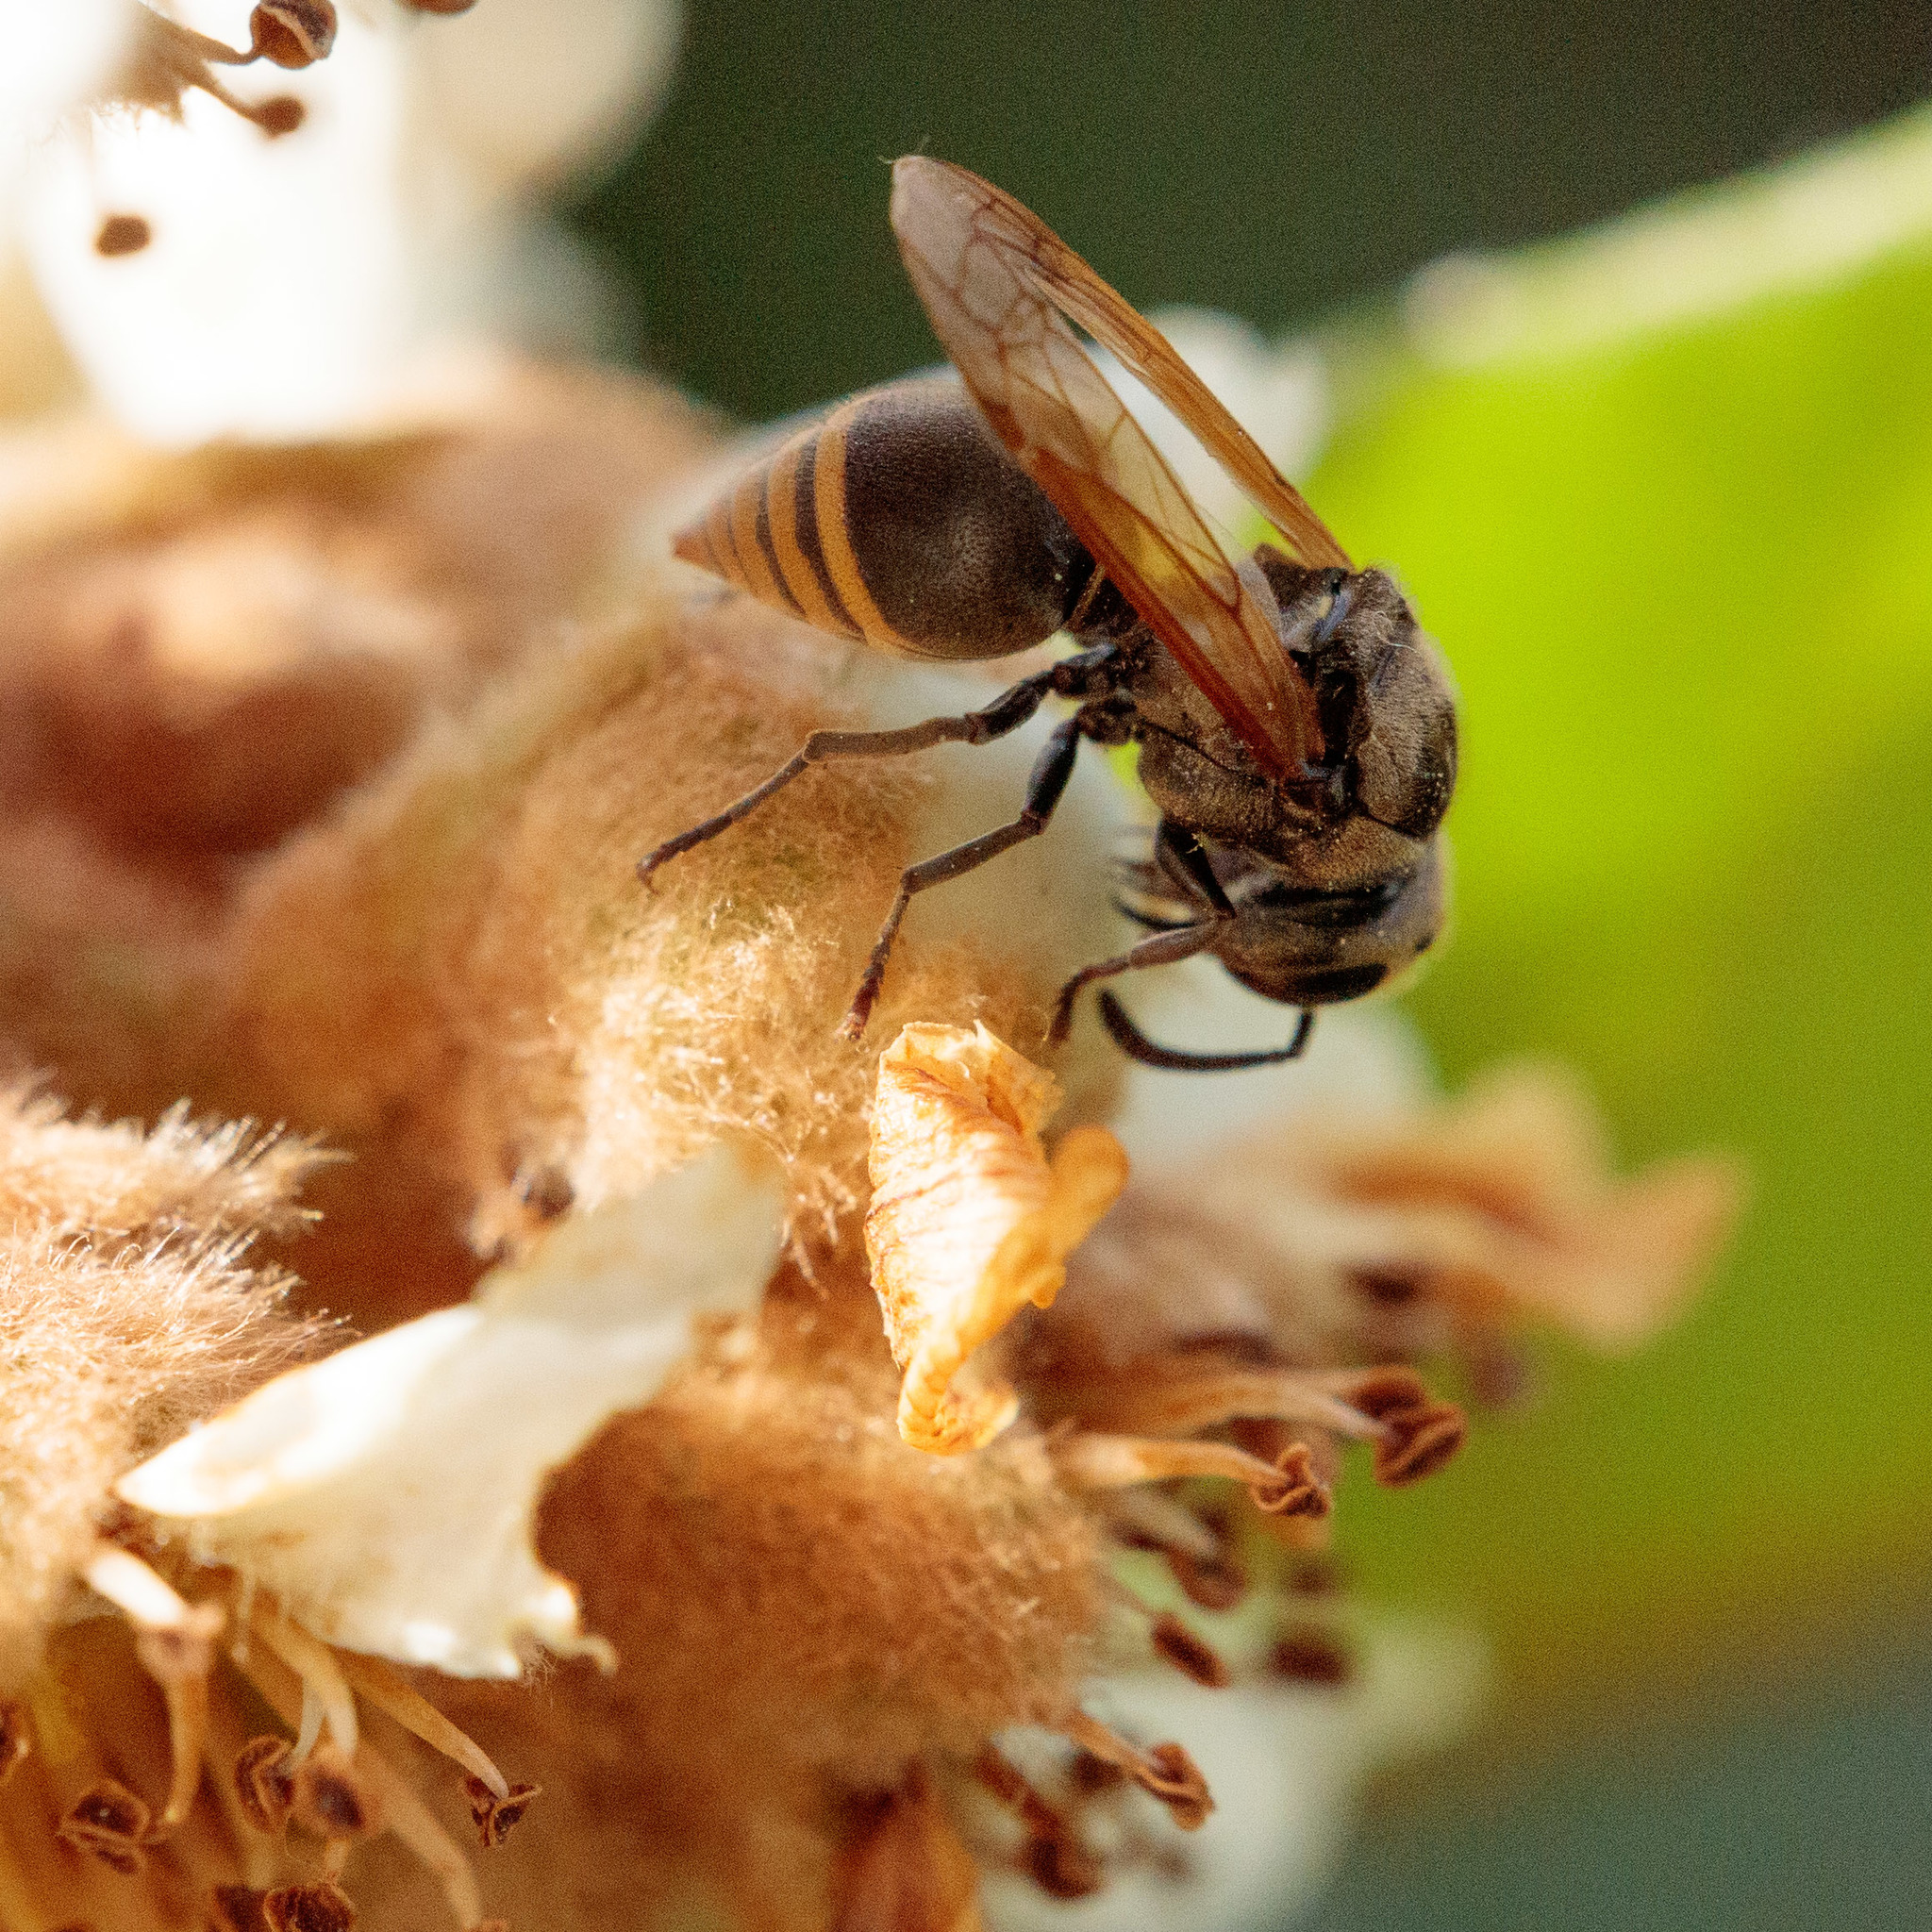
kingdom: Animalia
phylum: Arthropoda
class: Insecta
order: Hymenoptera
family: Vespidae
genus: Brachygastra
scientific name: Brachygastra mellifica
